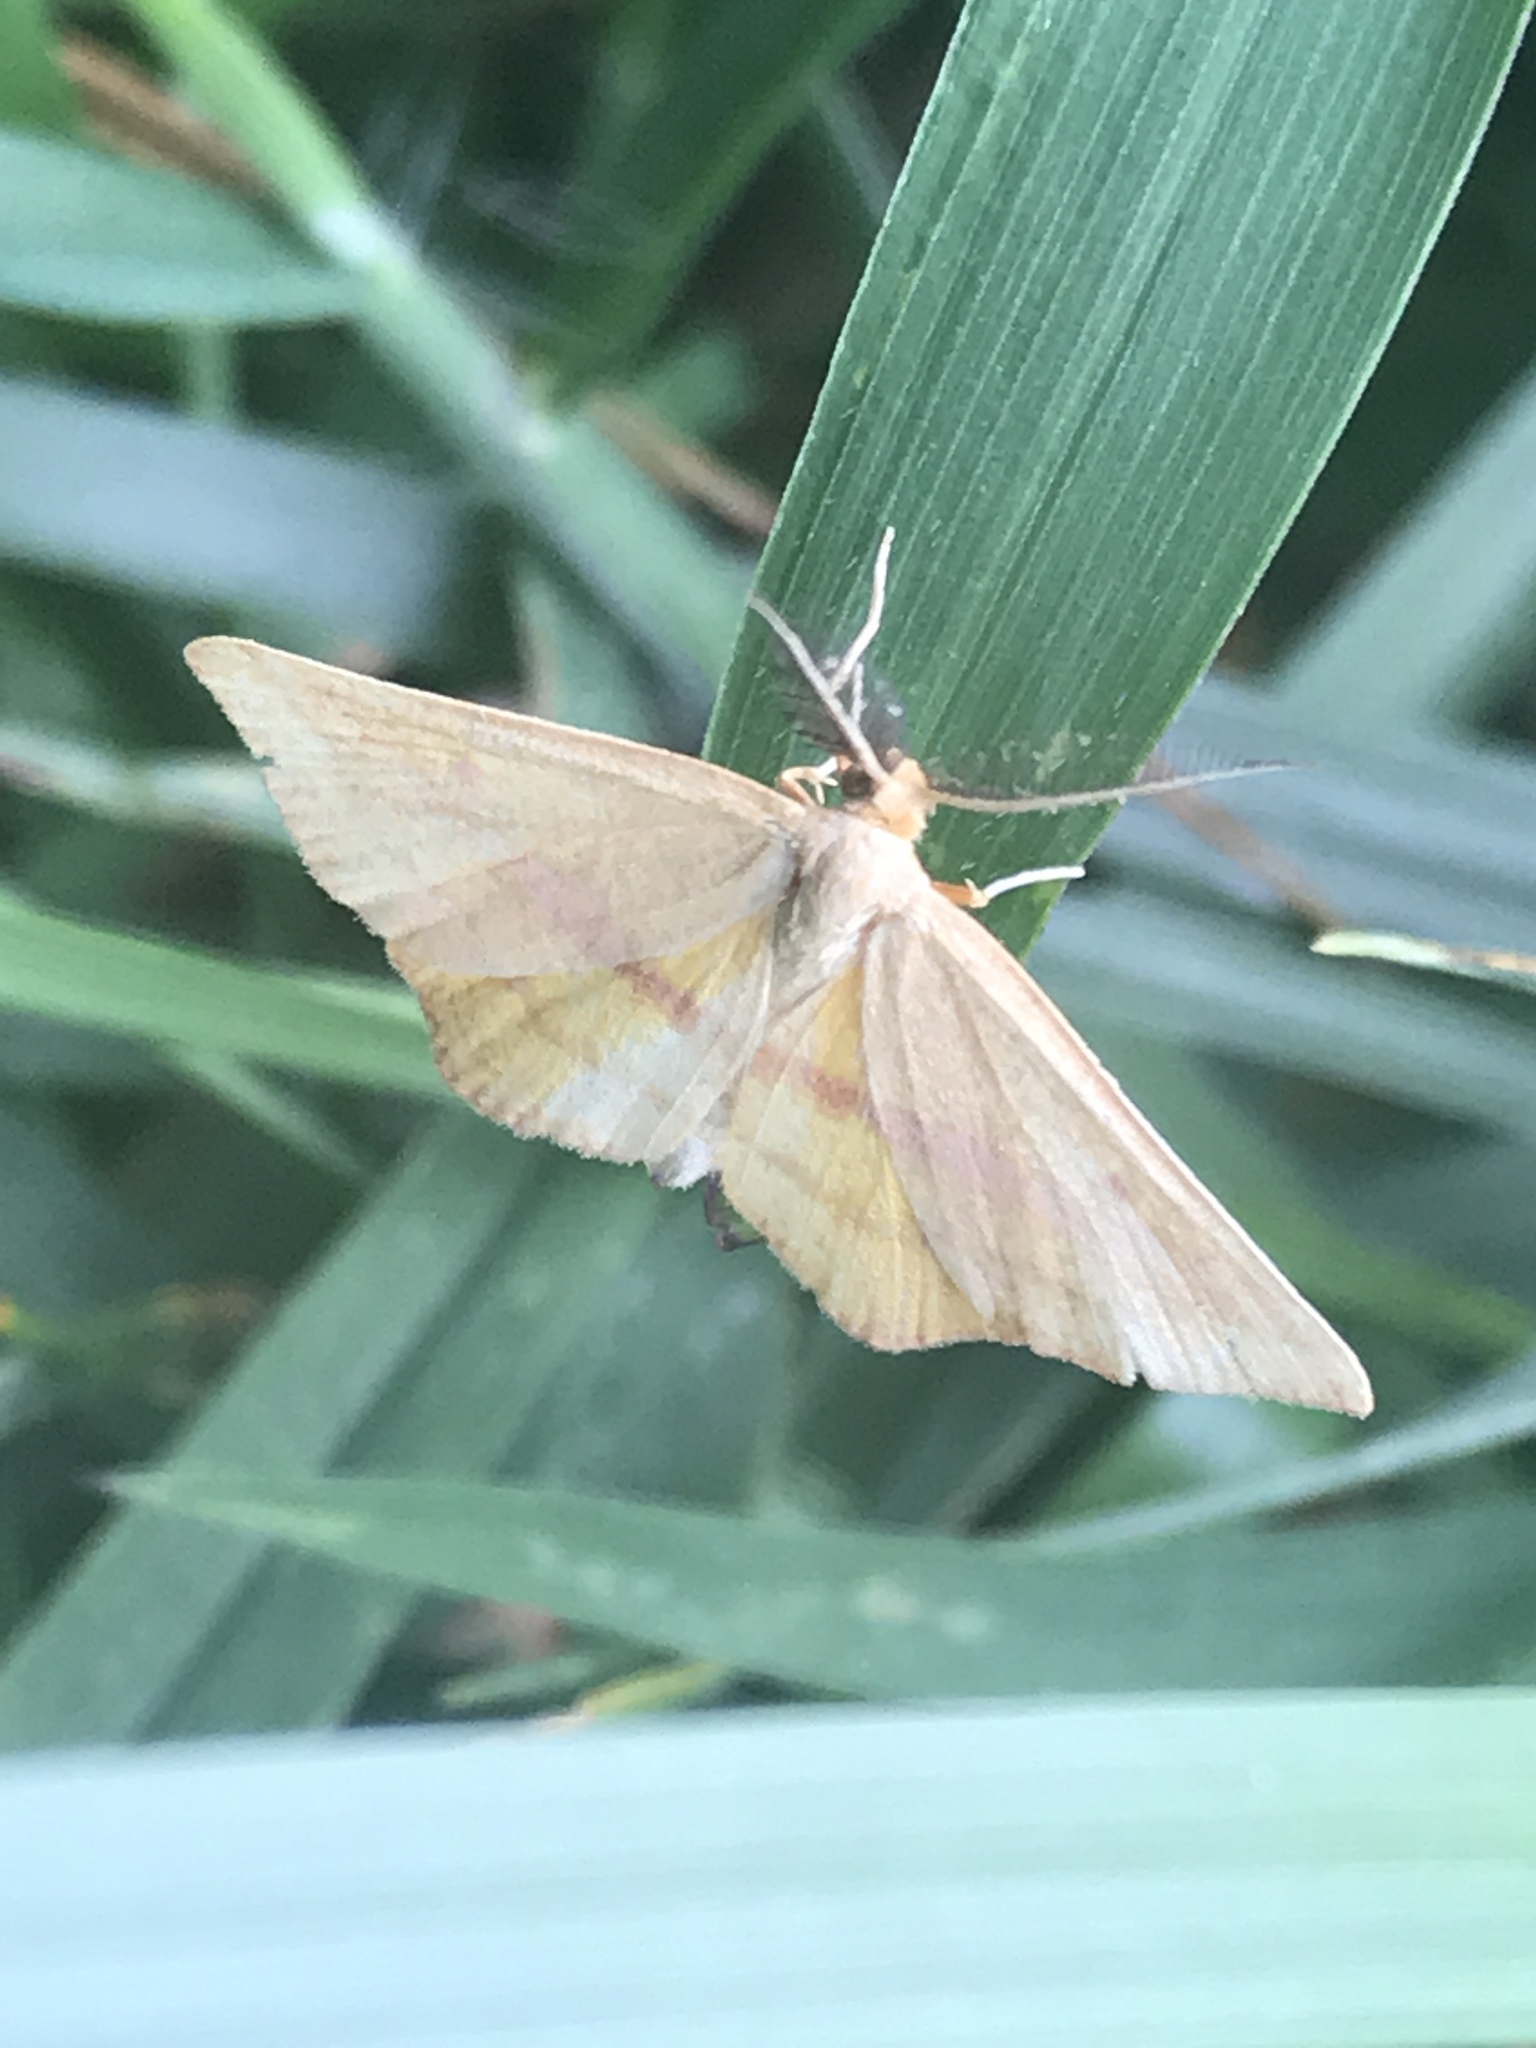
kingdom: Animalia
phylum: Arthropoda
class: Insecta
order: Lepidoptera
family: Geometridae
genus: Haematopis
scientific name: Haematopis grataria
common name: Chickweed geometer
